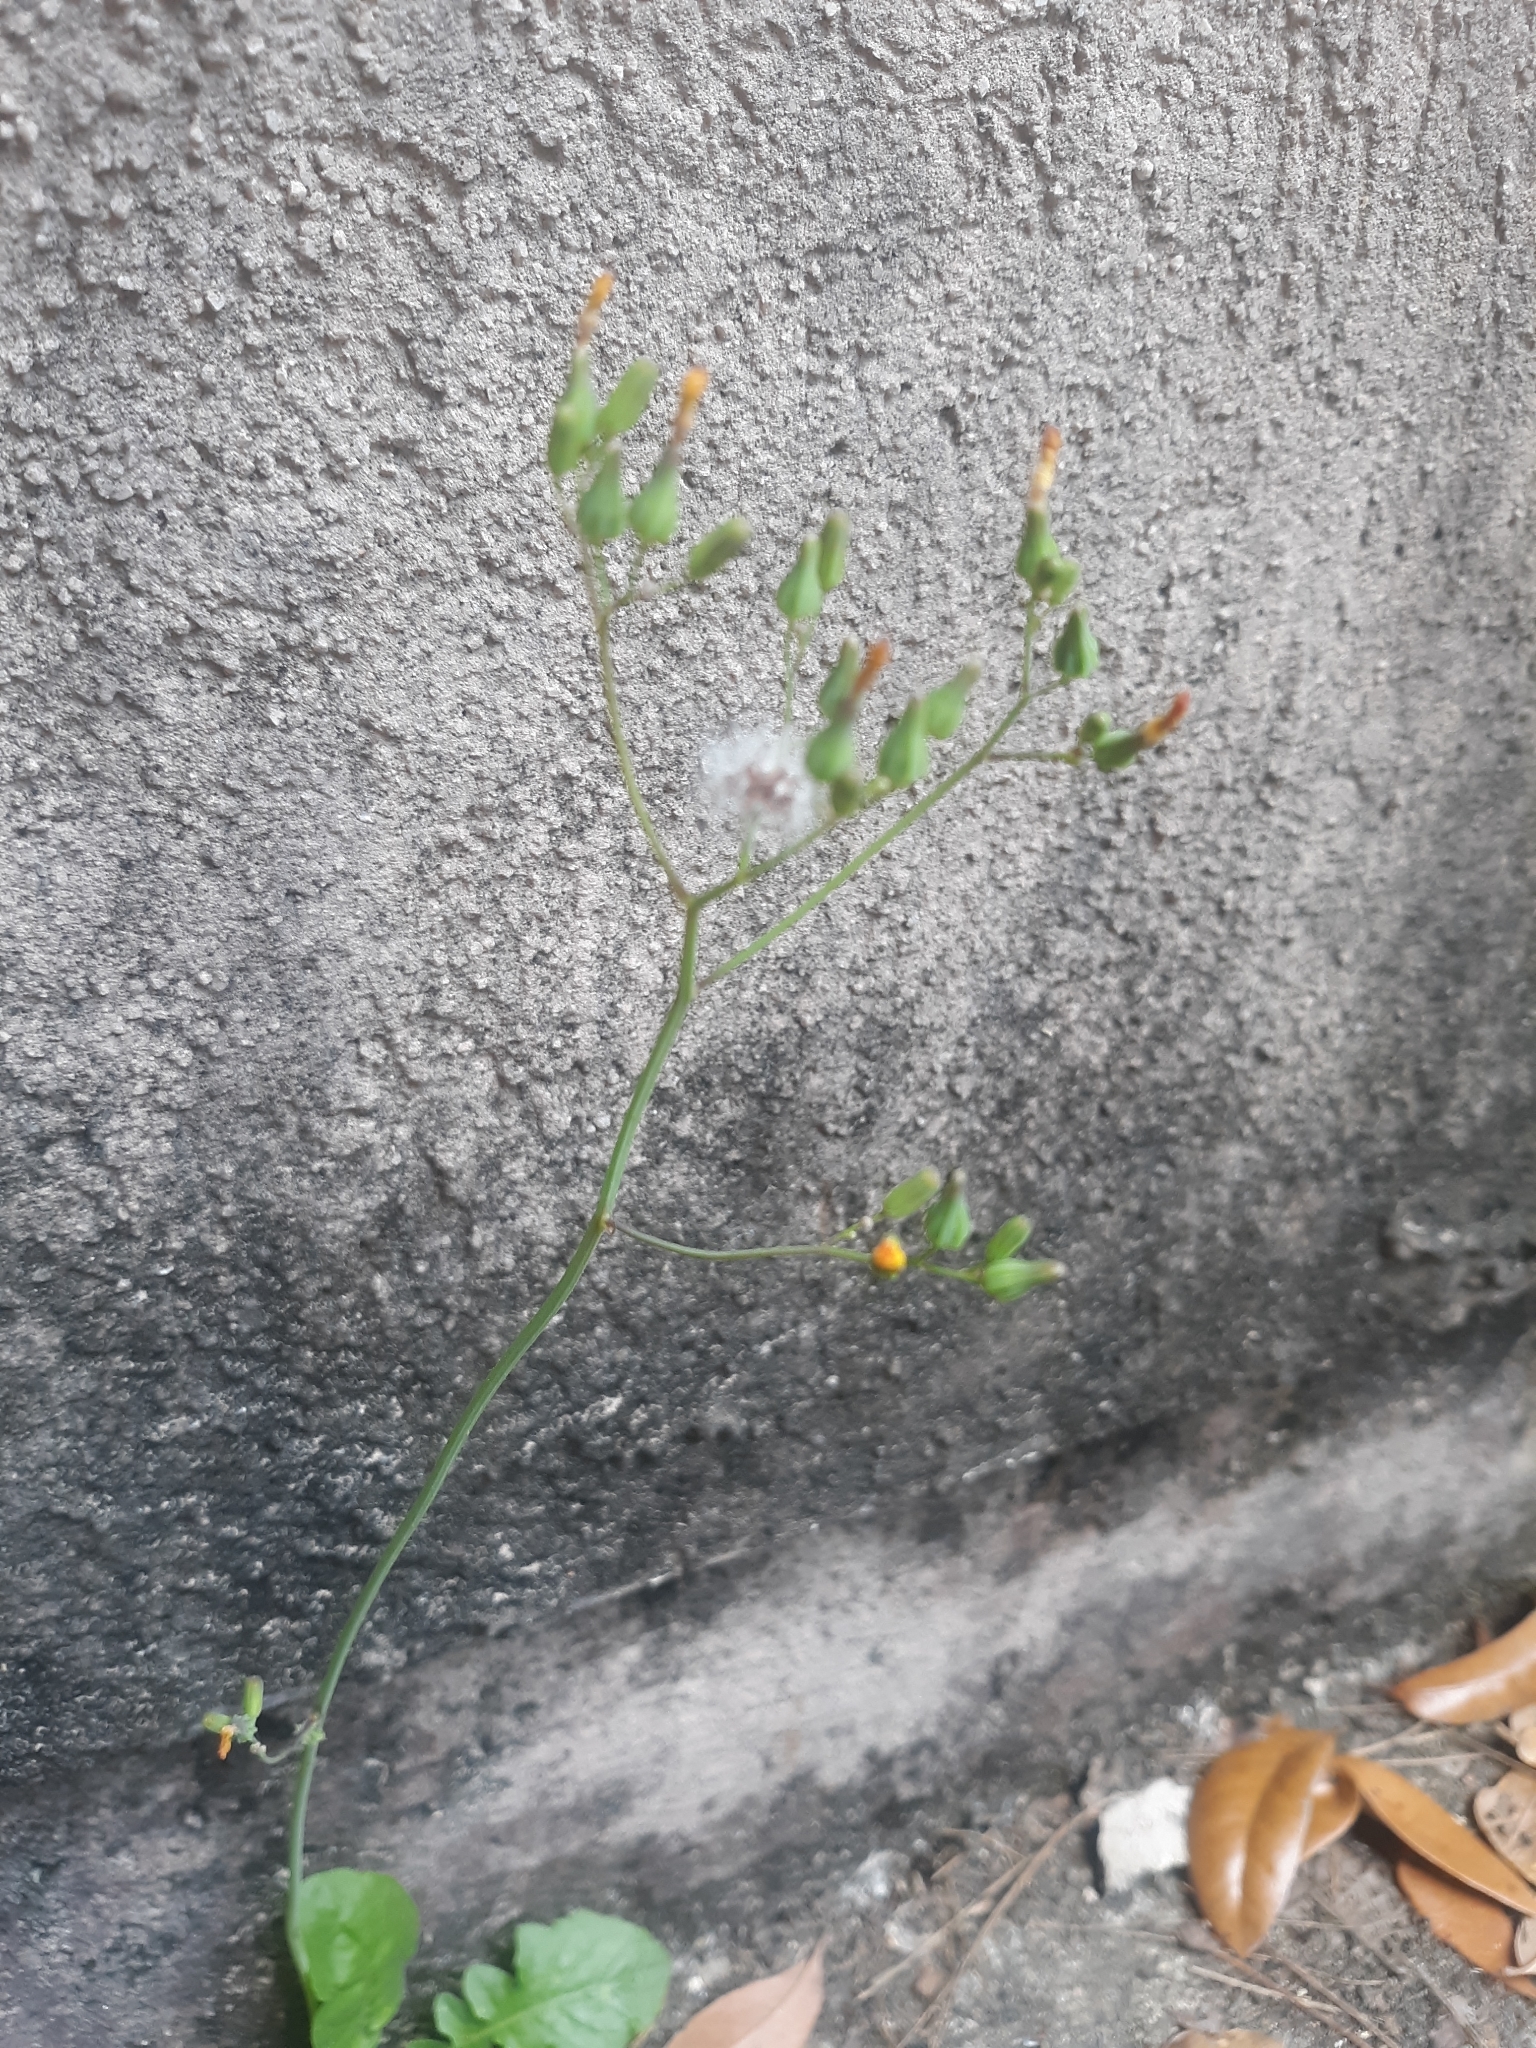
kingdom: Plantae
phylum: Tracheophyta
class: Magnoliopsida
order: Asterales
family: Asteraceae
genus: Youngia
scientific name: Youngia japonica
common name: Oriental false hawksbeard
